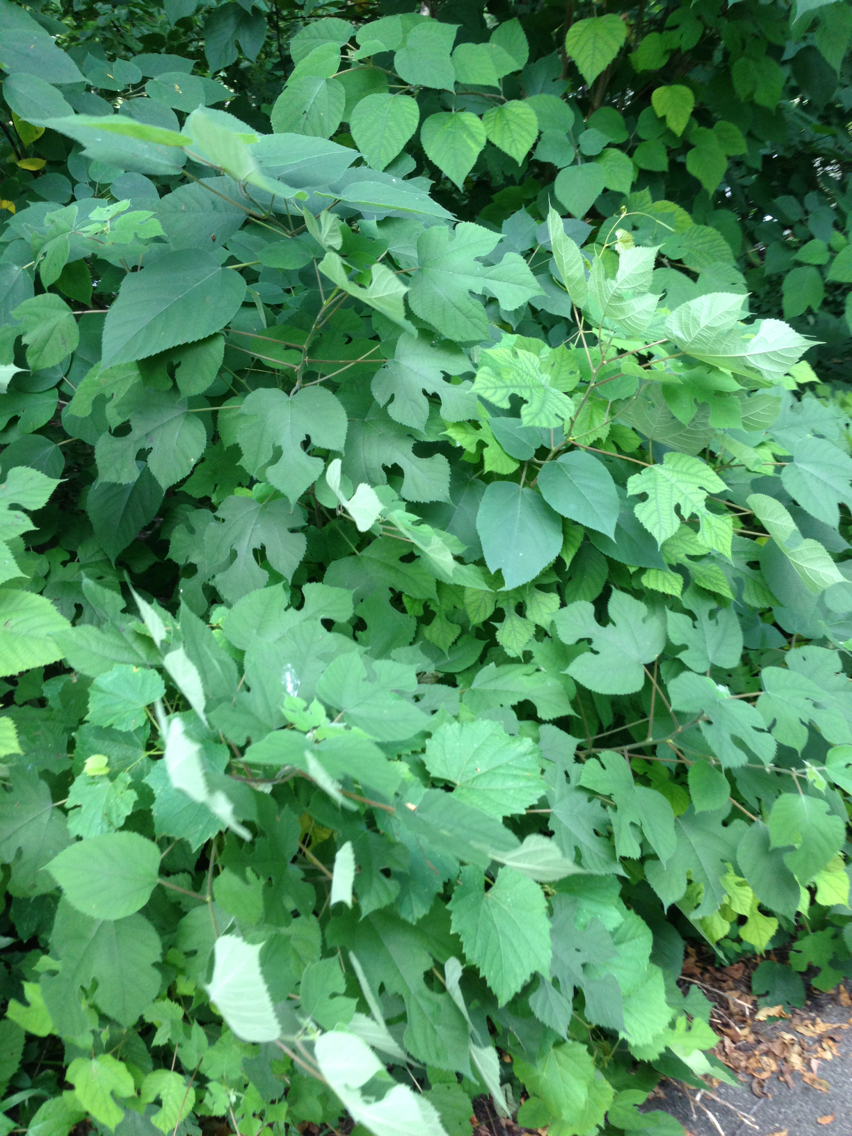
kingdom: Plantae
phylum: Tracheophyta
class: Magnoliopsida
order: Rosales
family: Moraceae
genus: Broussonetia
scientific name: Broussonetia papyrifera
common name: Paper mulberry
